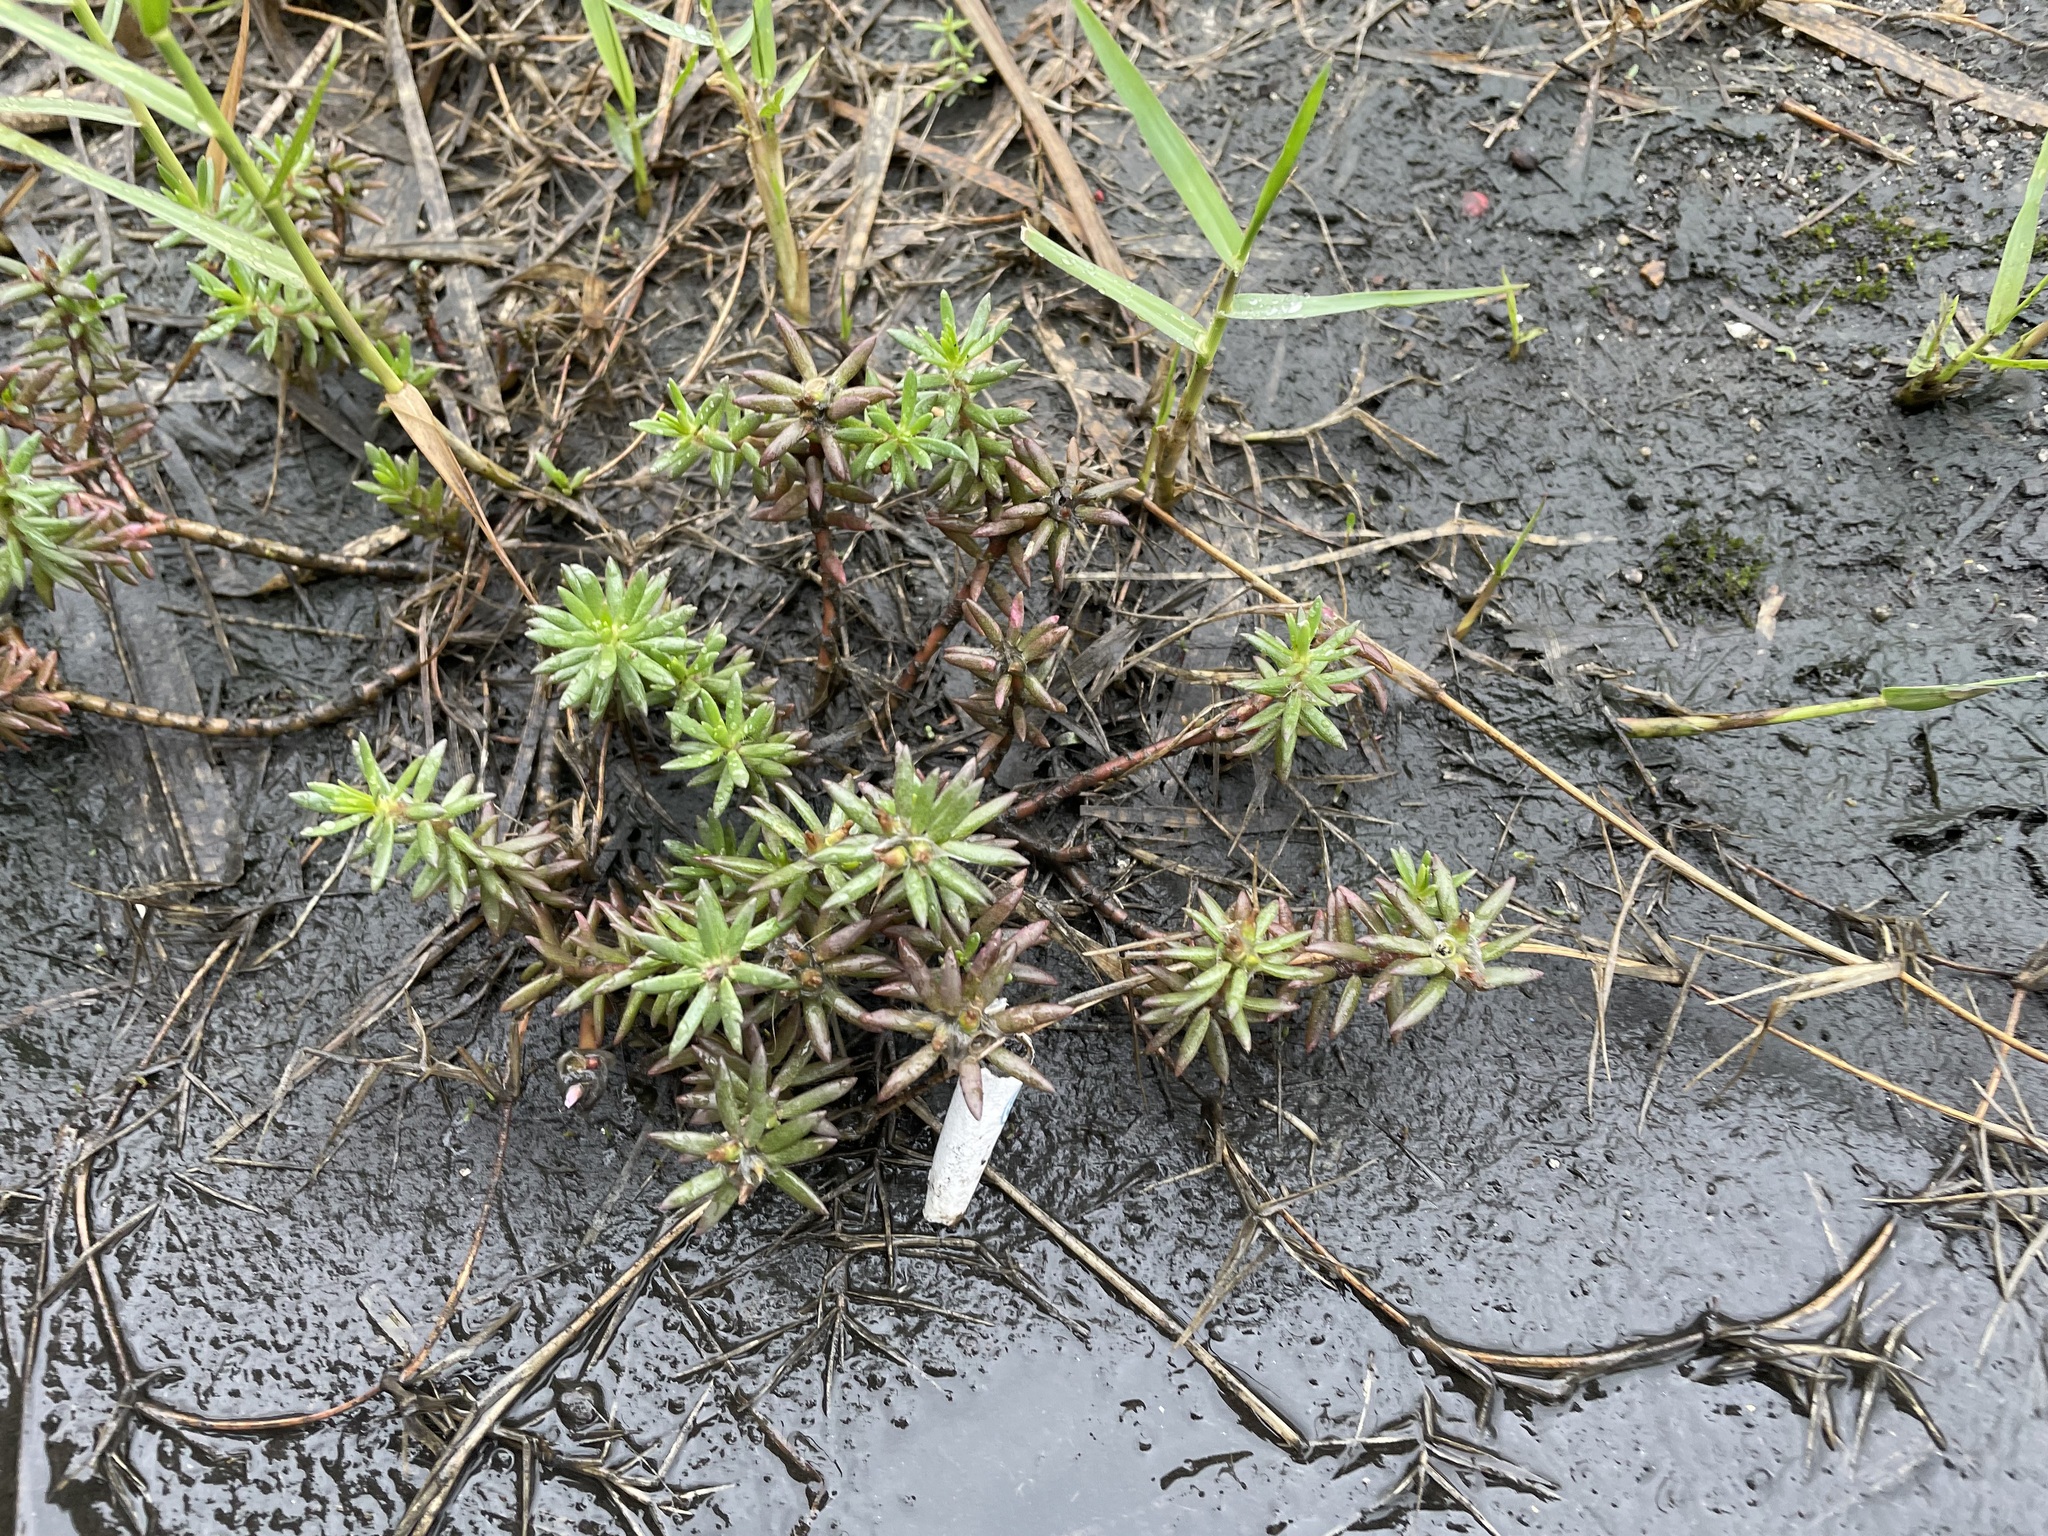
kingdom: Plantae
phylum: Tracheophyta
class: Magnoliopsida
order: Caryophyllales
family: Portulacaceae
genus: Portulaca
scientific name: Portulaca pilosa
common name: Kiss me quick
